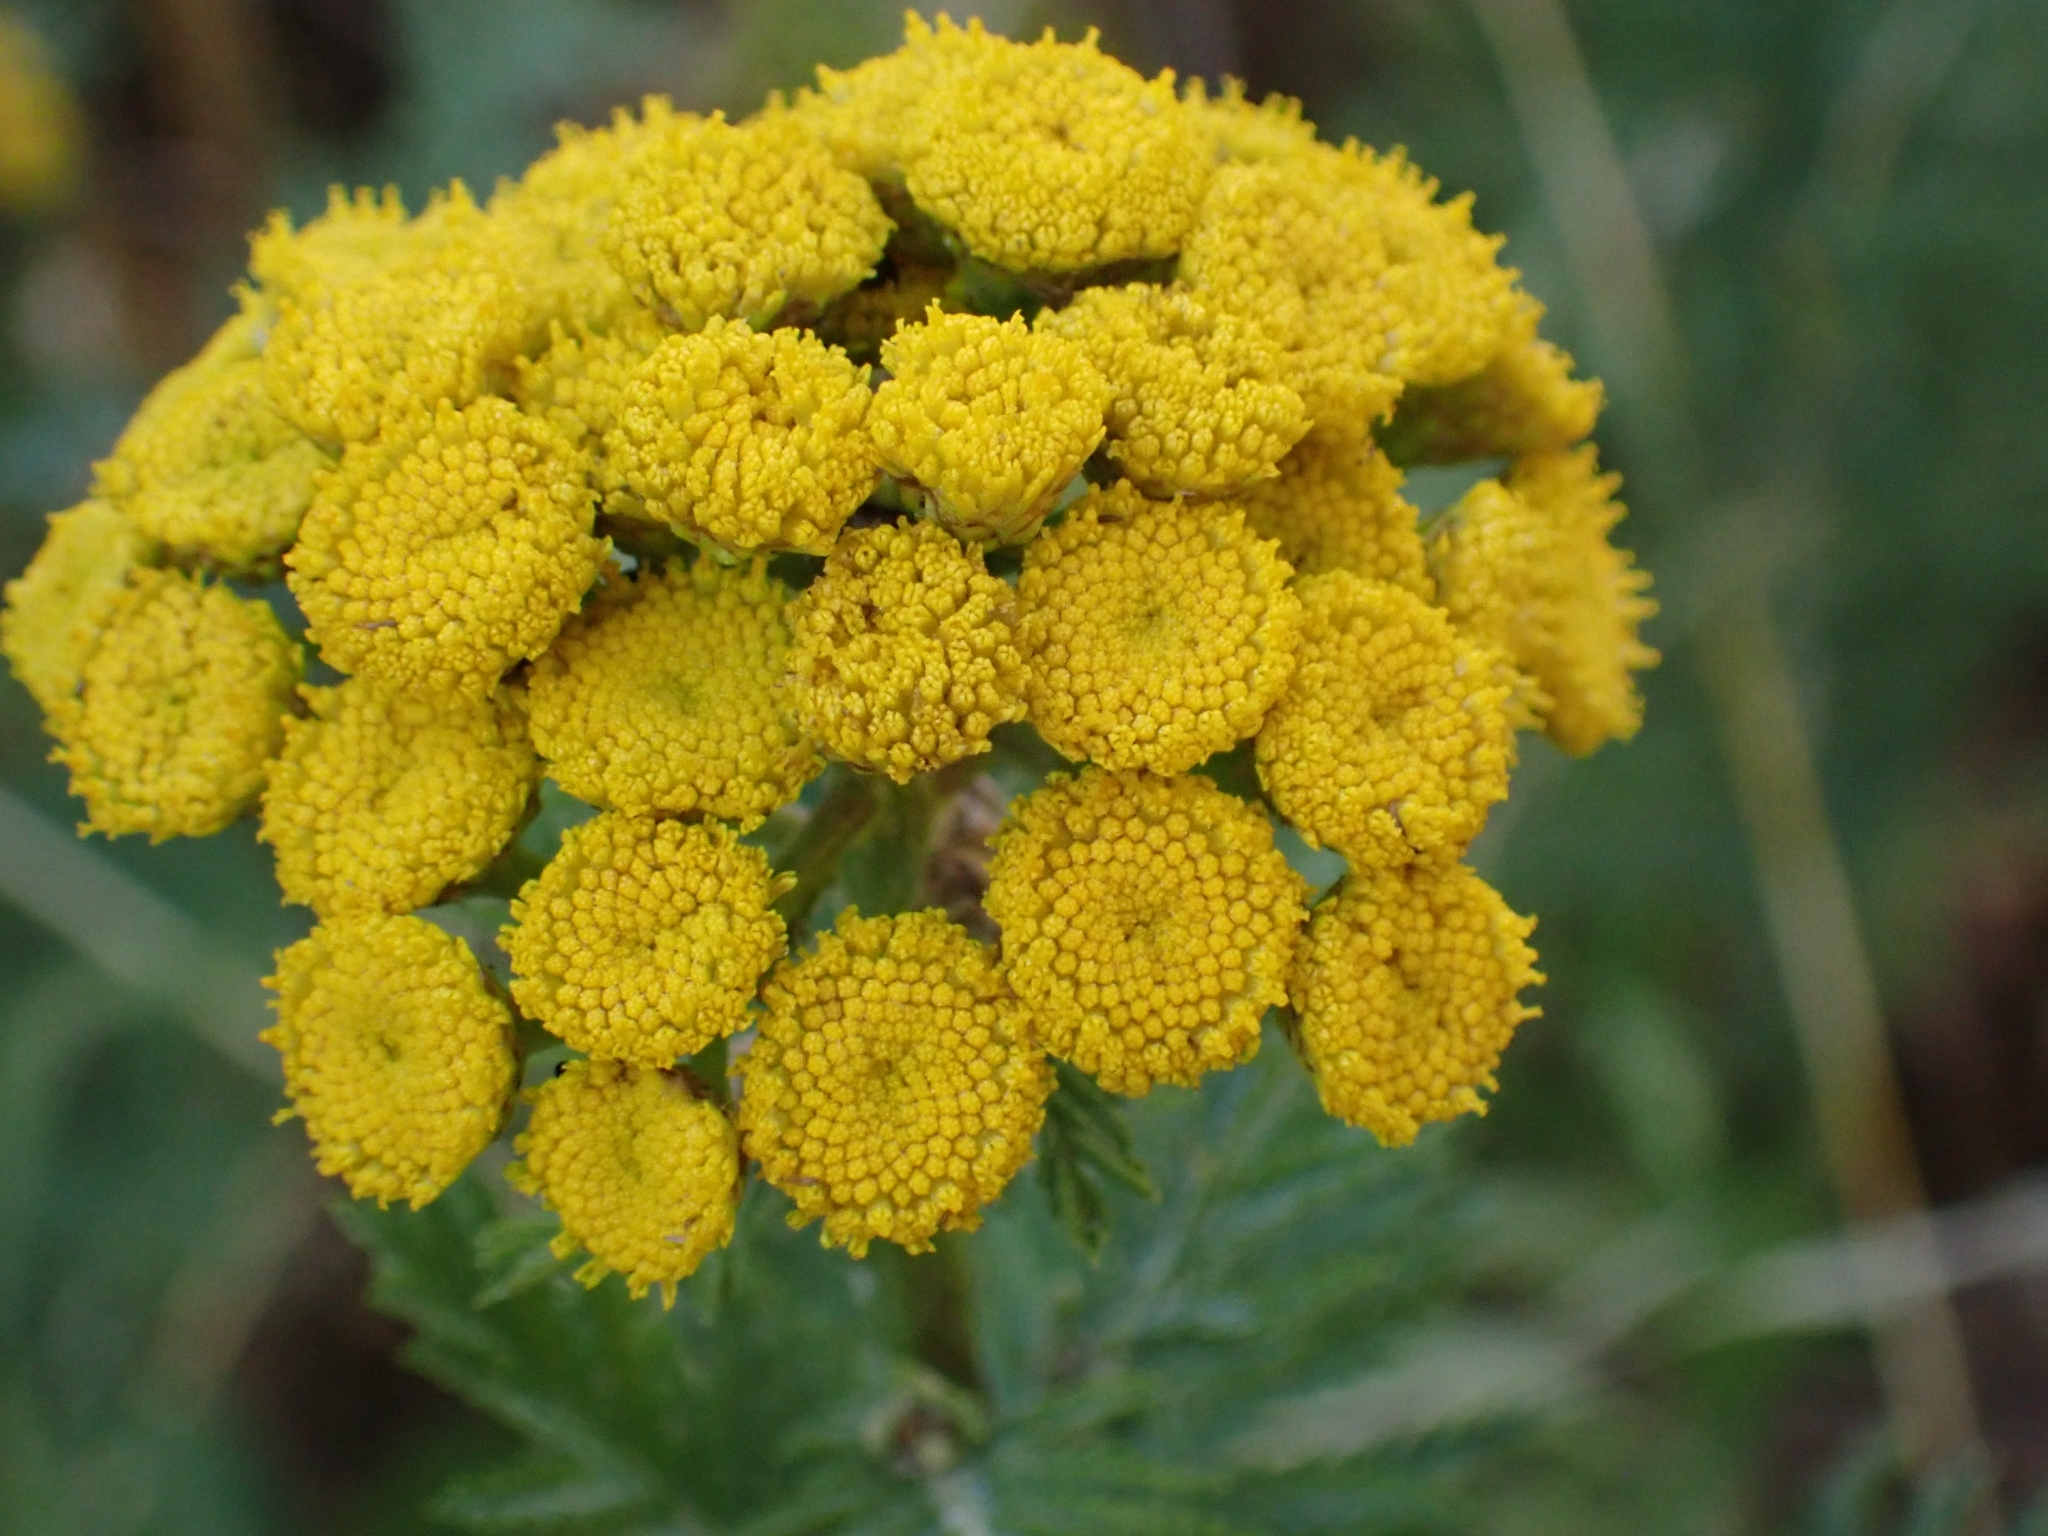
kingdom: Plantae
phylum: Tracheophyta
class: Magnoliopsida
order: Asterales
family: Asteraceae
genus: Tanacetum
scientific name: Tanacetum vulgare
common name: Common tansy
